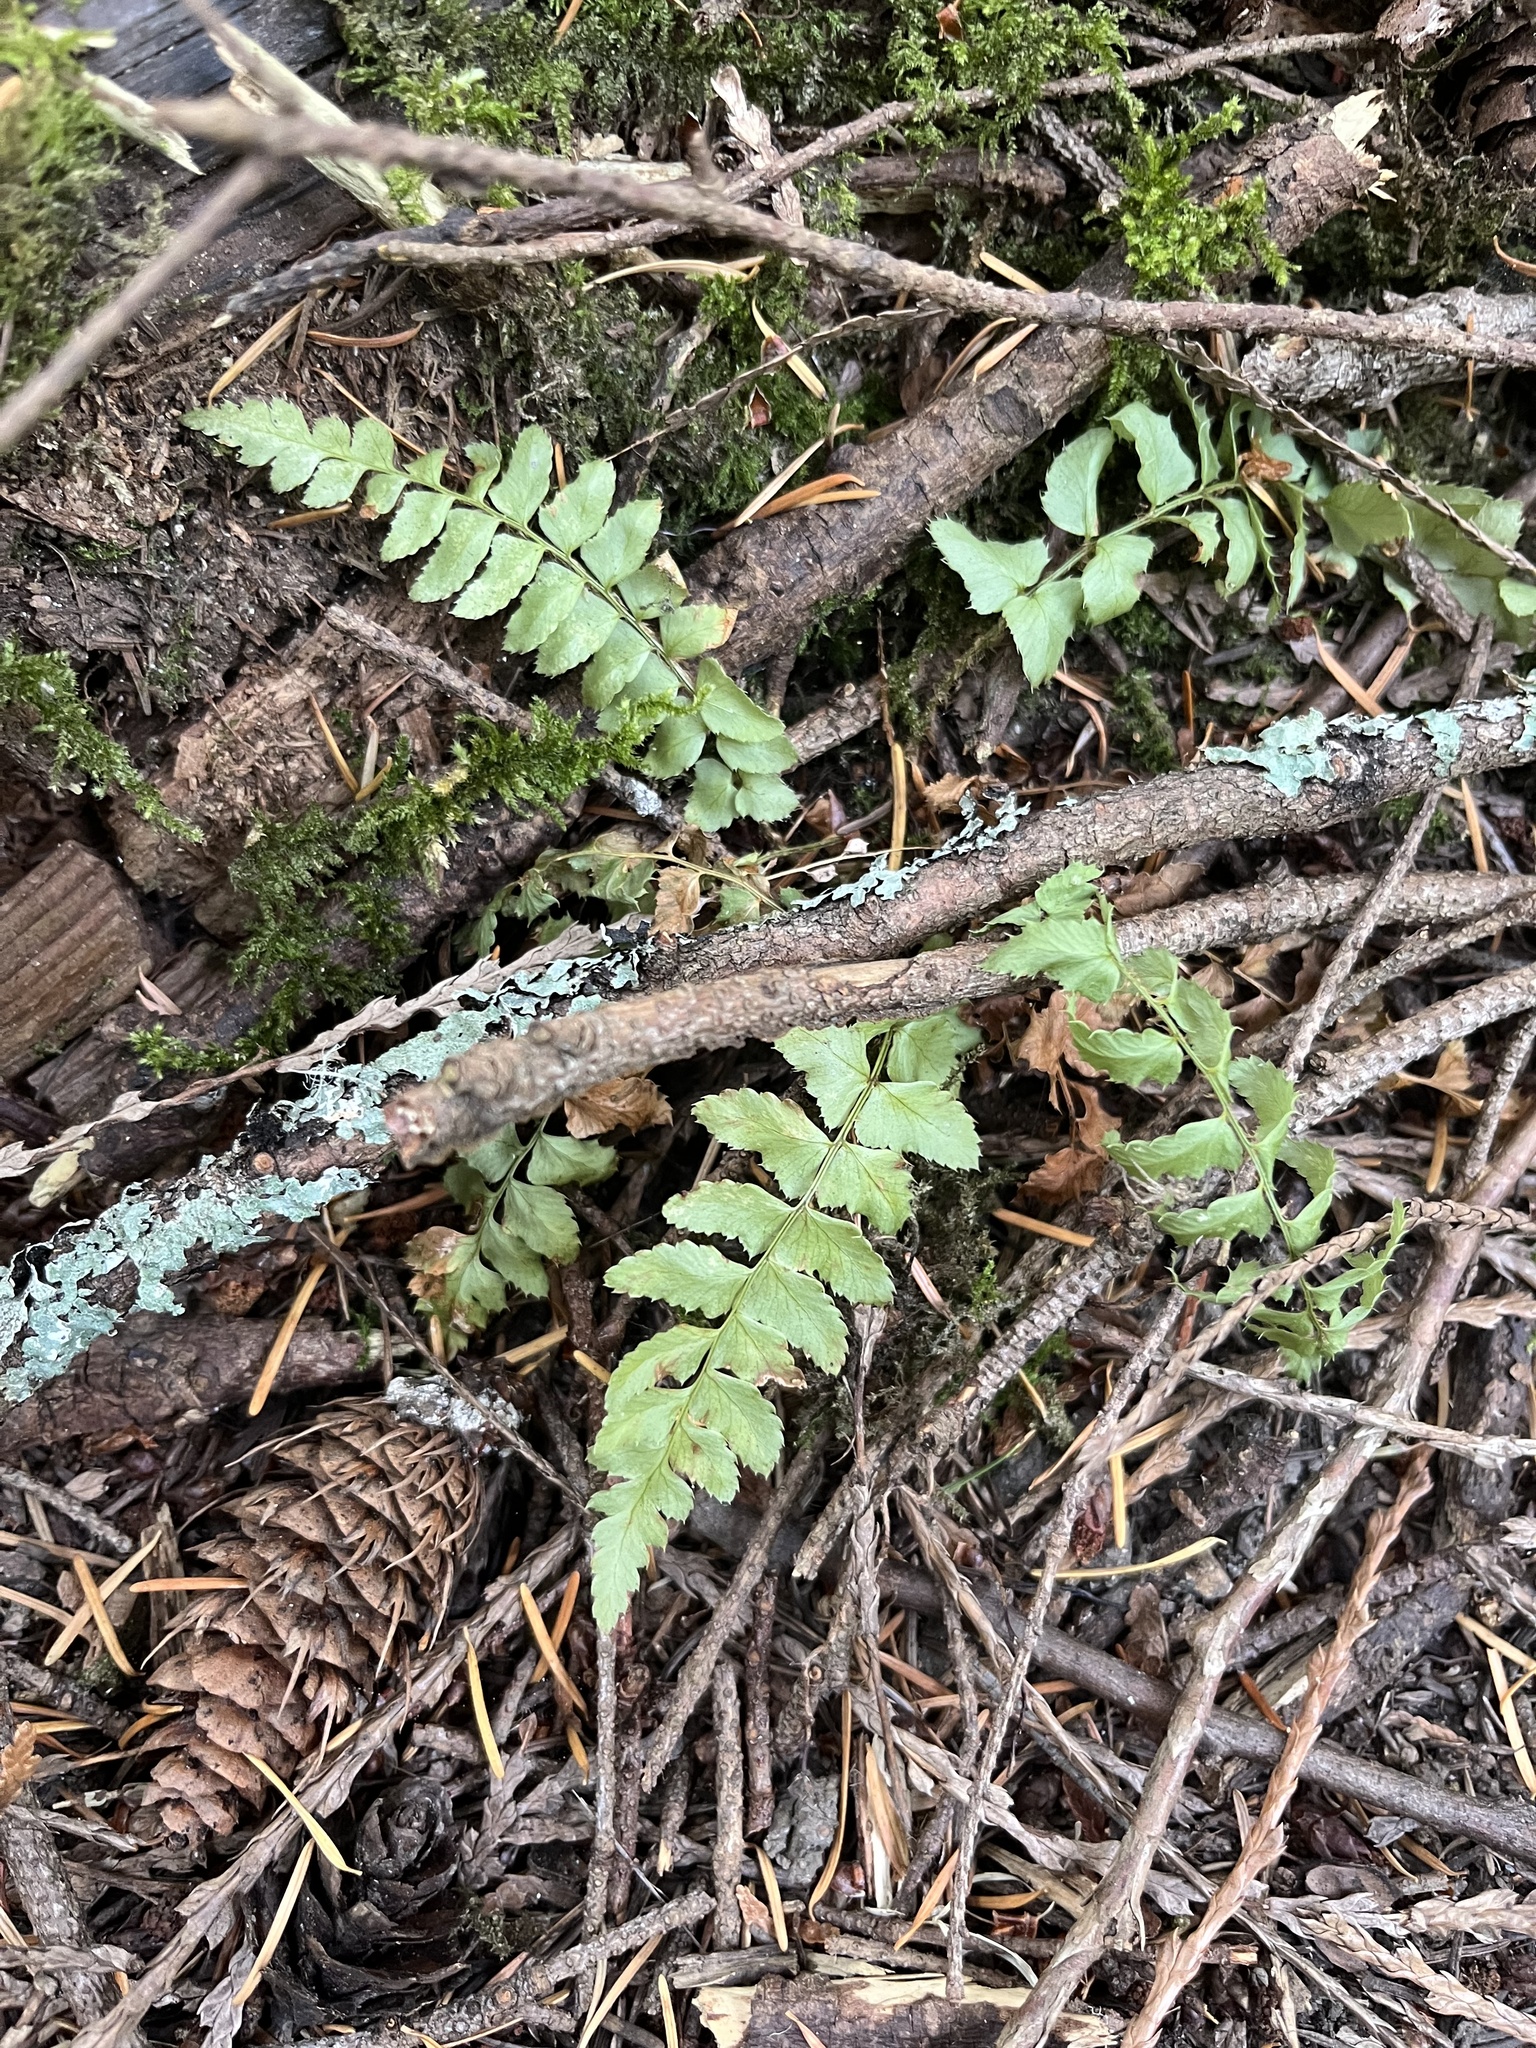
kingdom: Plantae
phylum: Tracheophyta
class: Polypodiopsida
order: Polypodiales
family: Dryopteridaceae
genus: Polystichum
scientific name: Polystichum munitum
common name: Western sword-fern
